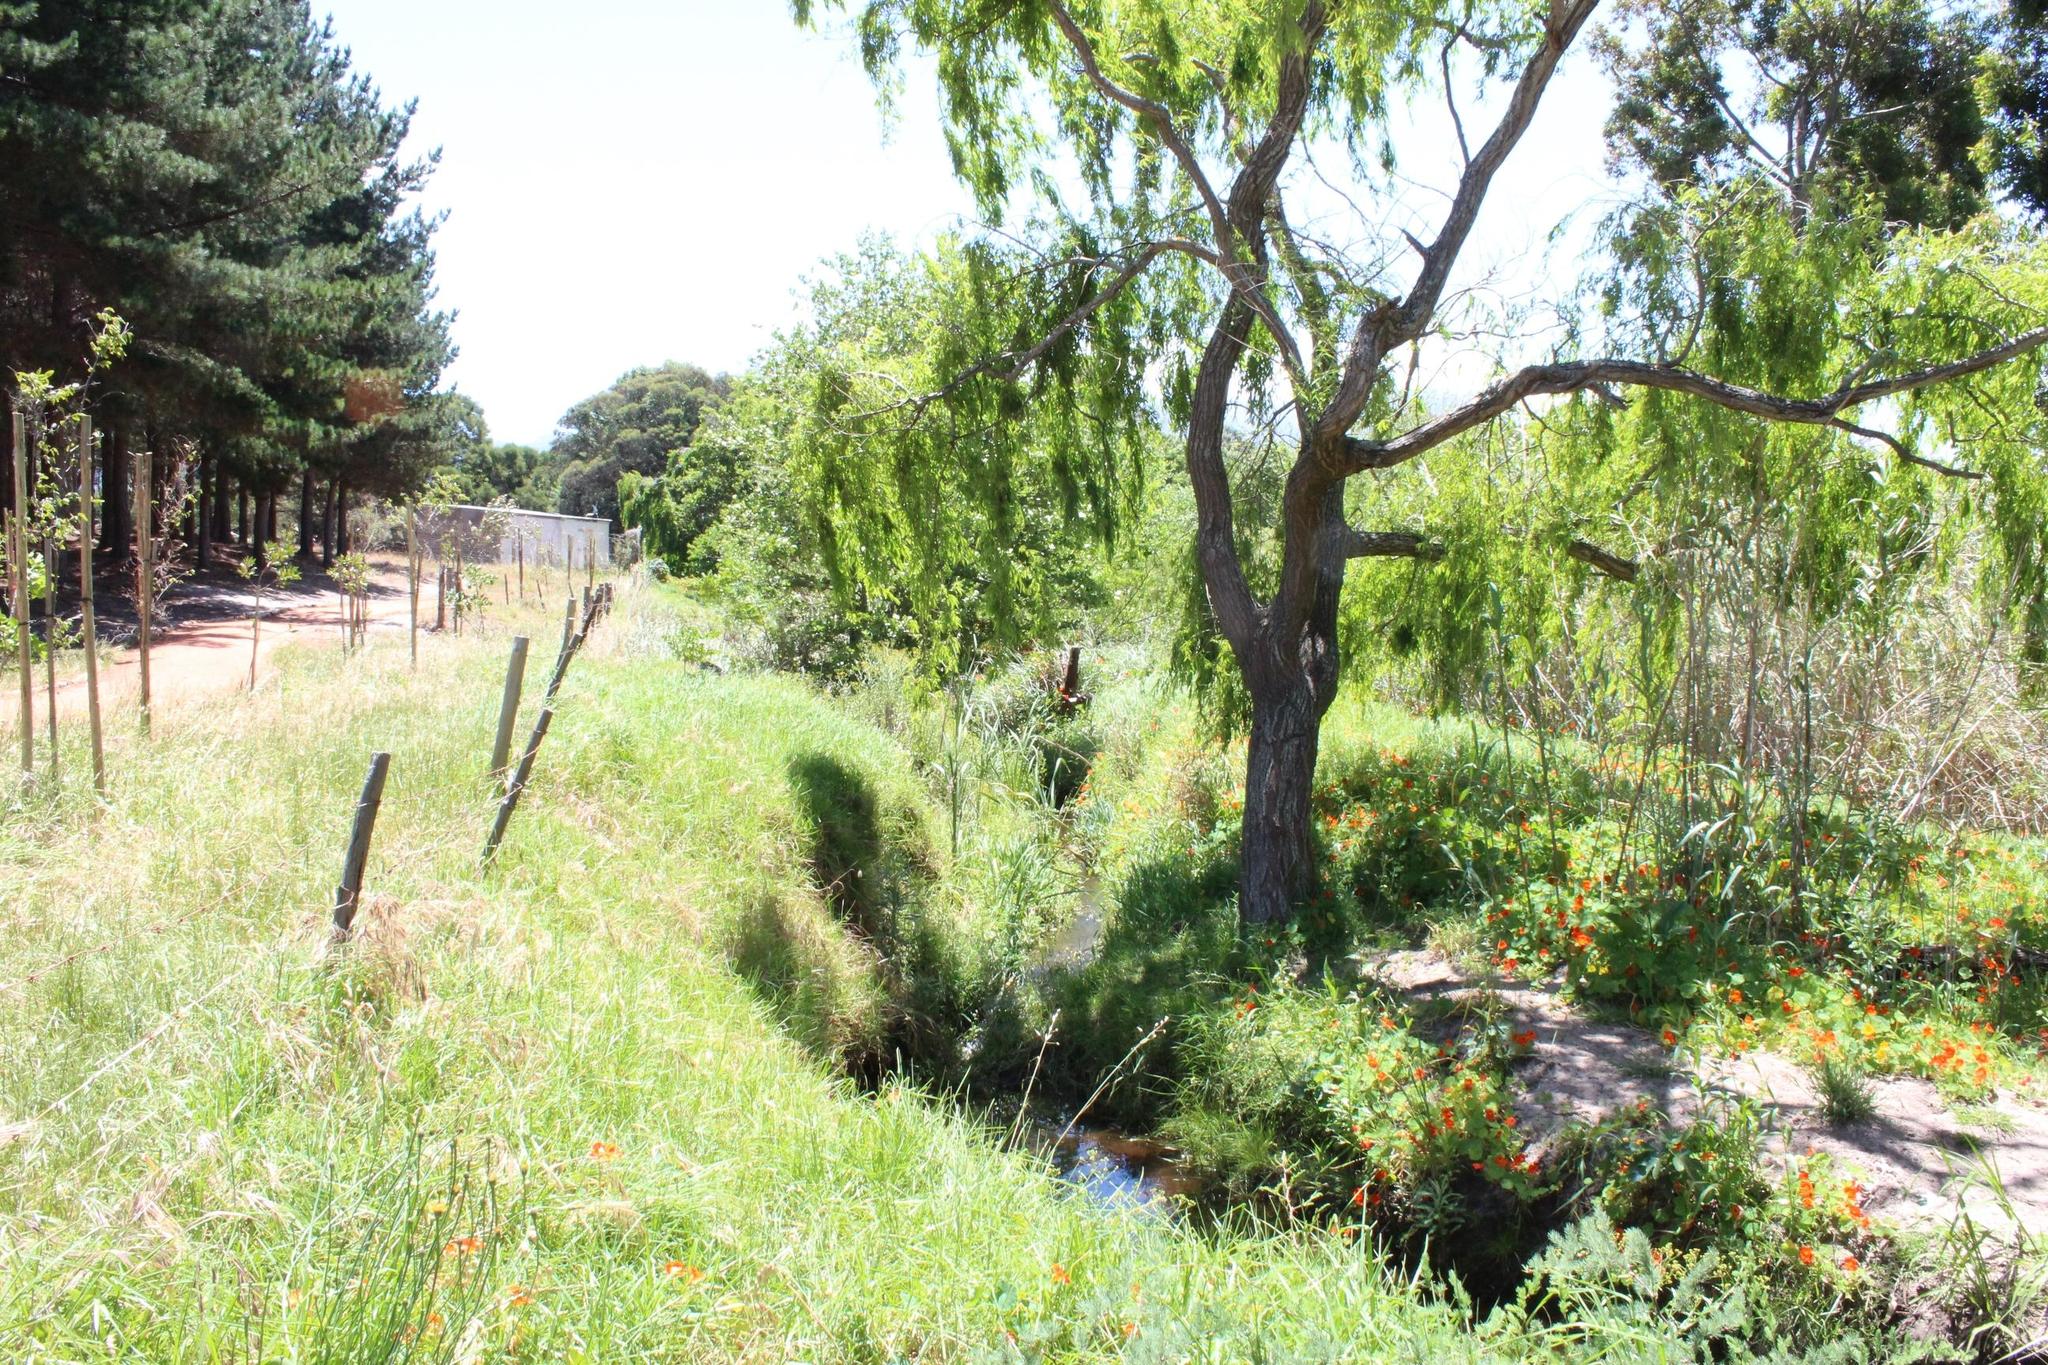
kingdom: Plantae
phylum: Tracheophyta
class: Magnoliopsida
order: Malpighiales
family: Salicaceae
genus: Salix
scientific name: Salix babylonica
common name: Weeping willow
